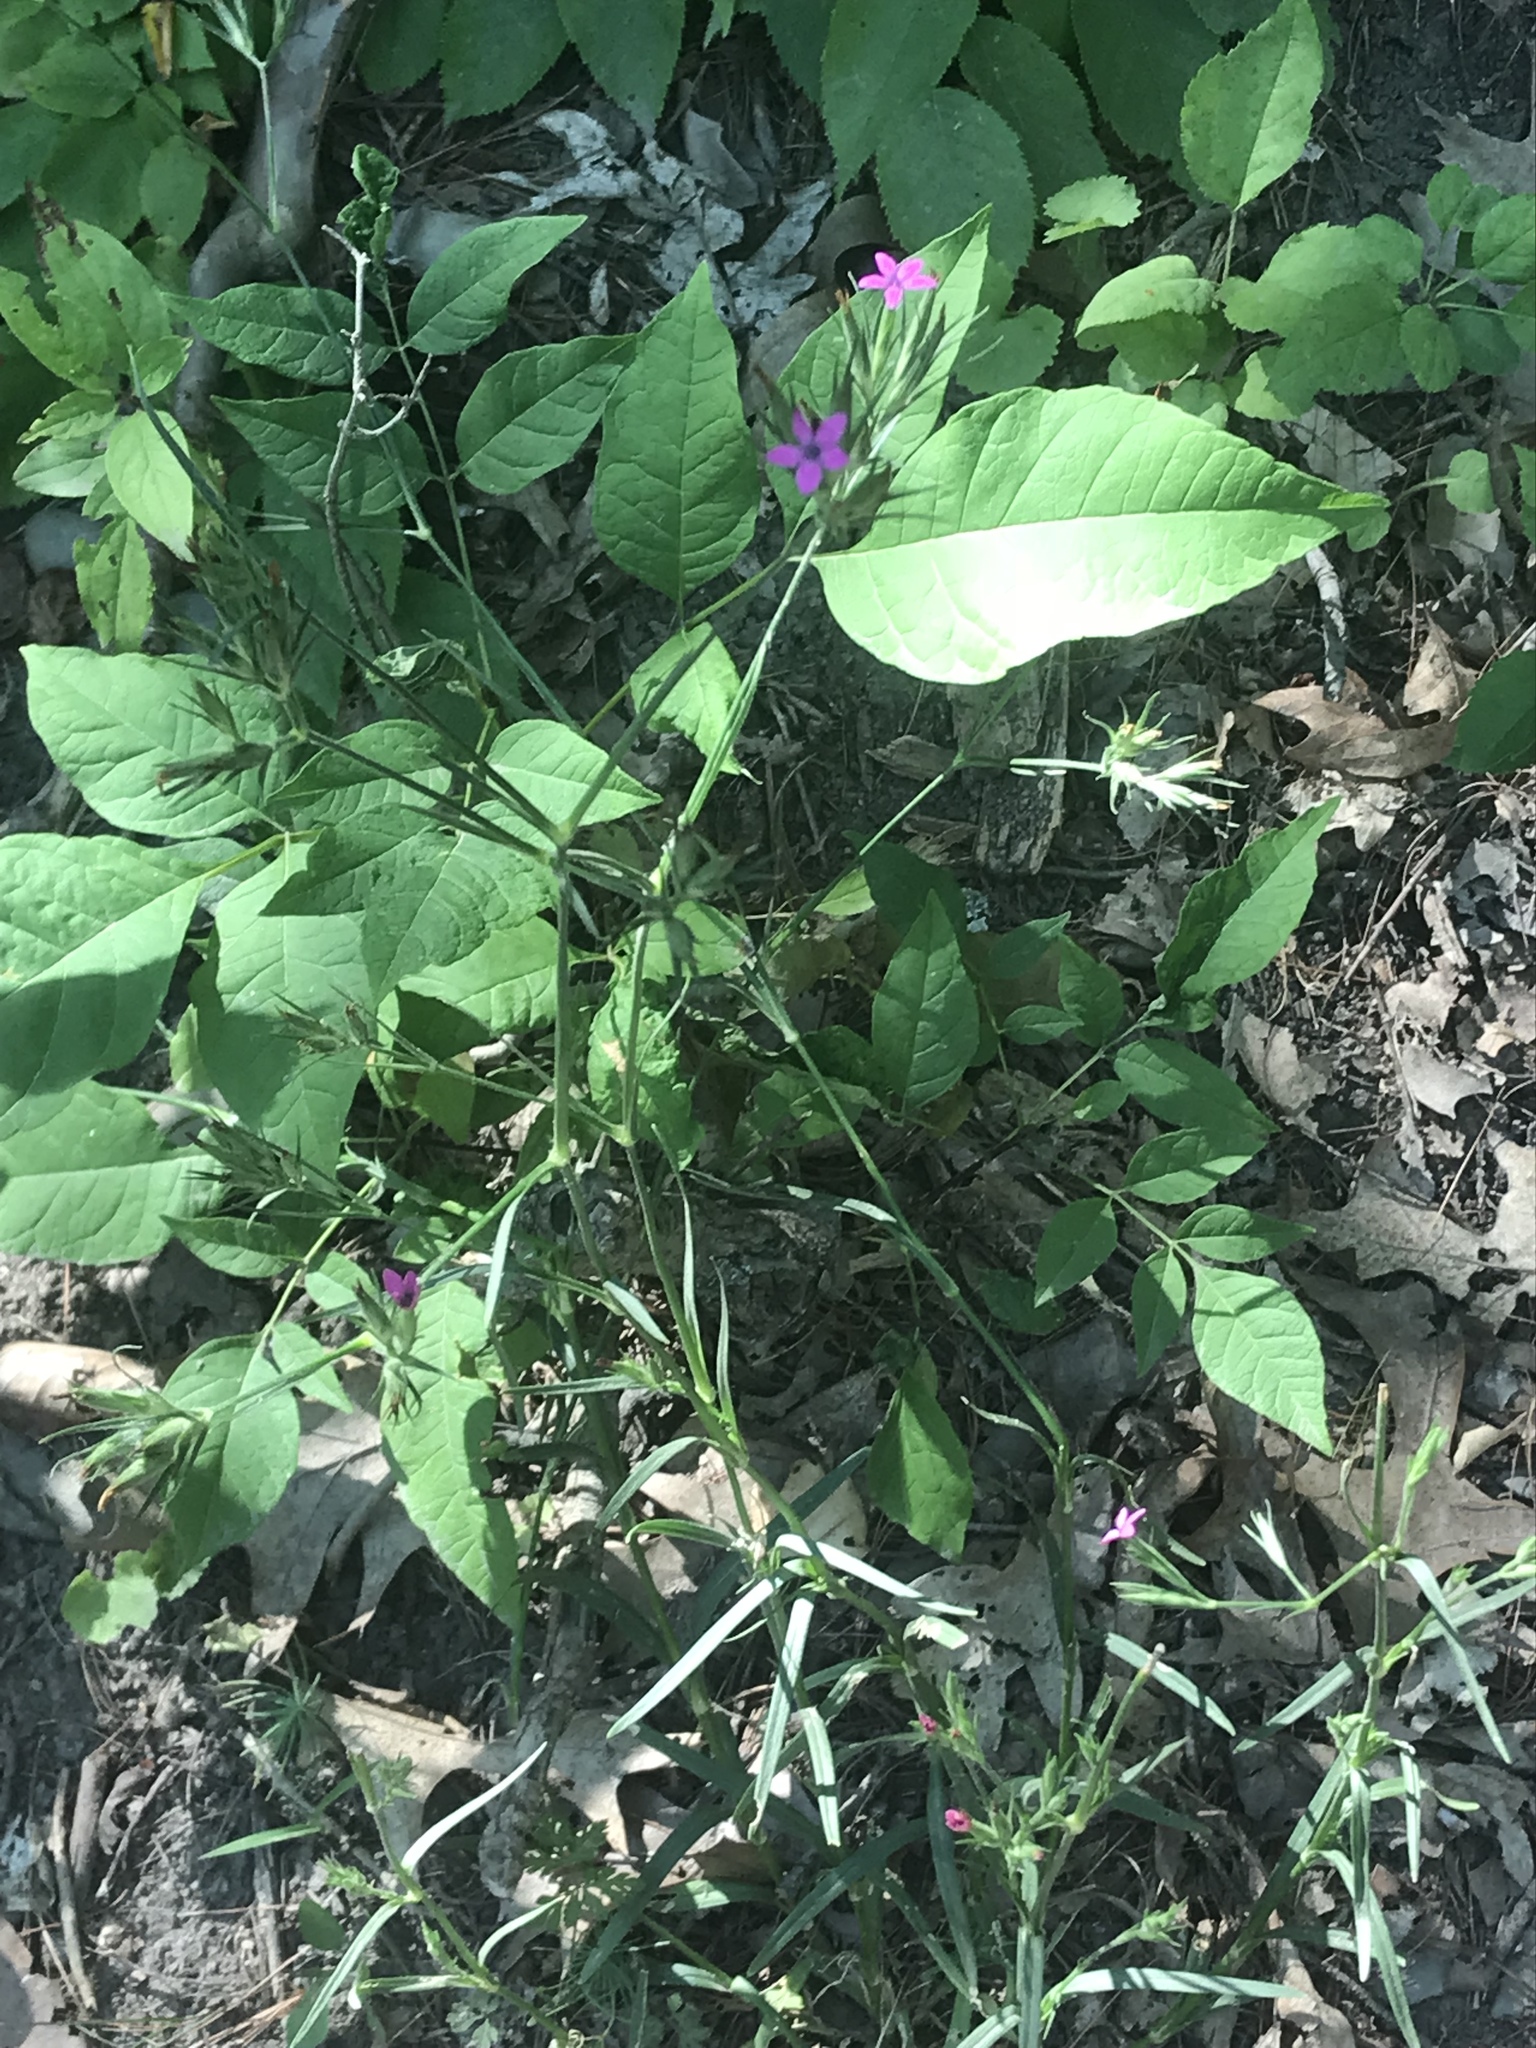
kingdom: Plantae
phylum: Tracheophyta
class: Magnoliopsida
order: Caryophyllales
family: Caryophyllaceae
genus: Dianthus
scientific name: Dianthus armeria
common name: Deptford pink
